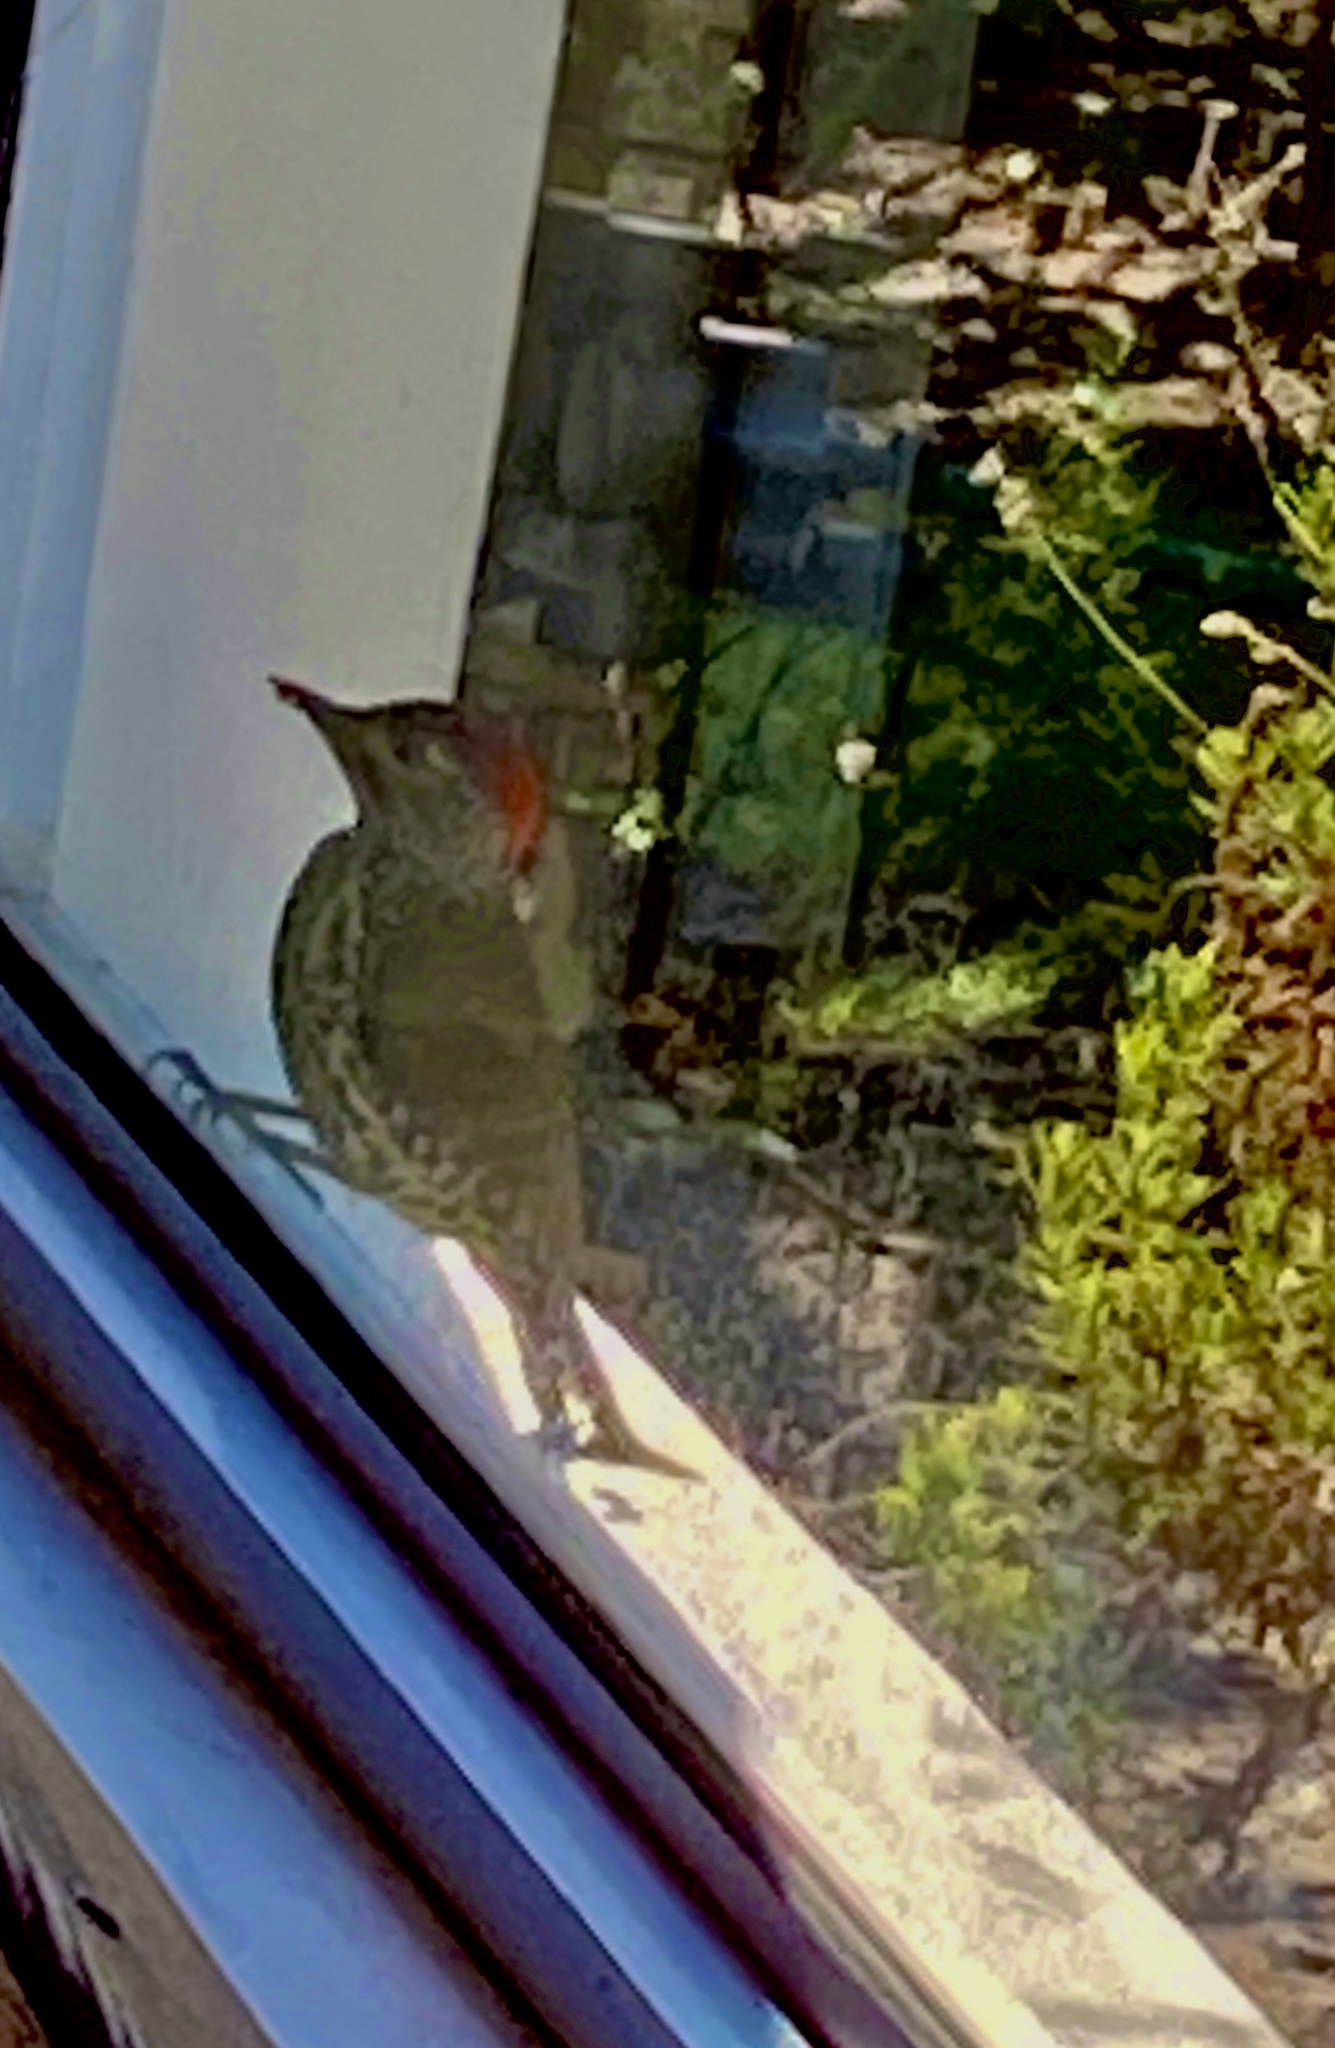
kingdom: Animalia
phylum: Chordata
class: Aves
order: Piciformes
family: Picidae
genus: Campethera
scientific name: Campethera notata
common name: Knysna woodpecker
